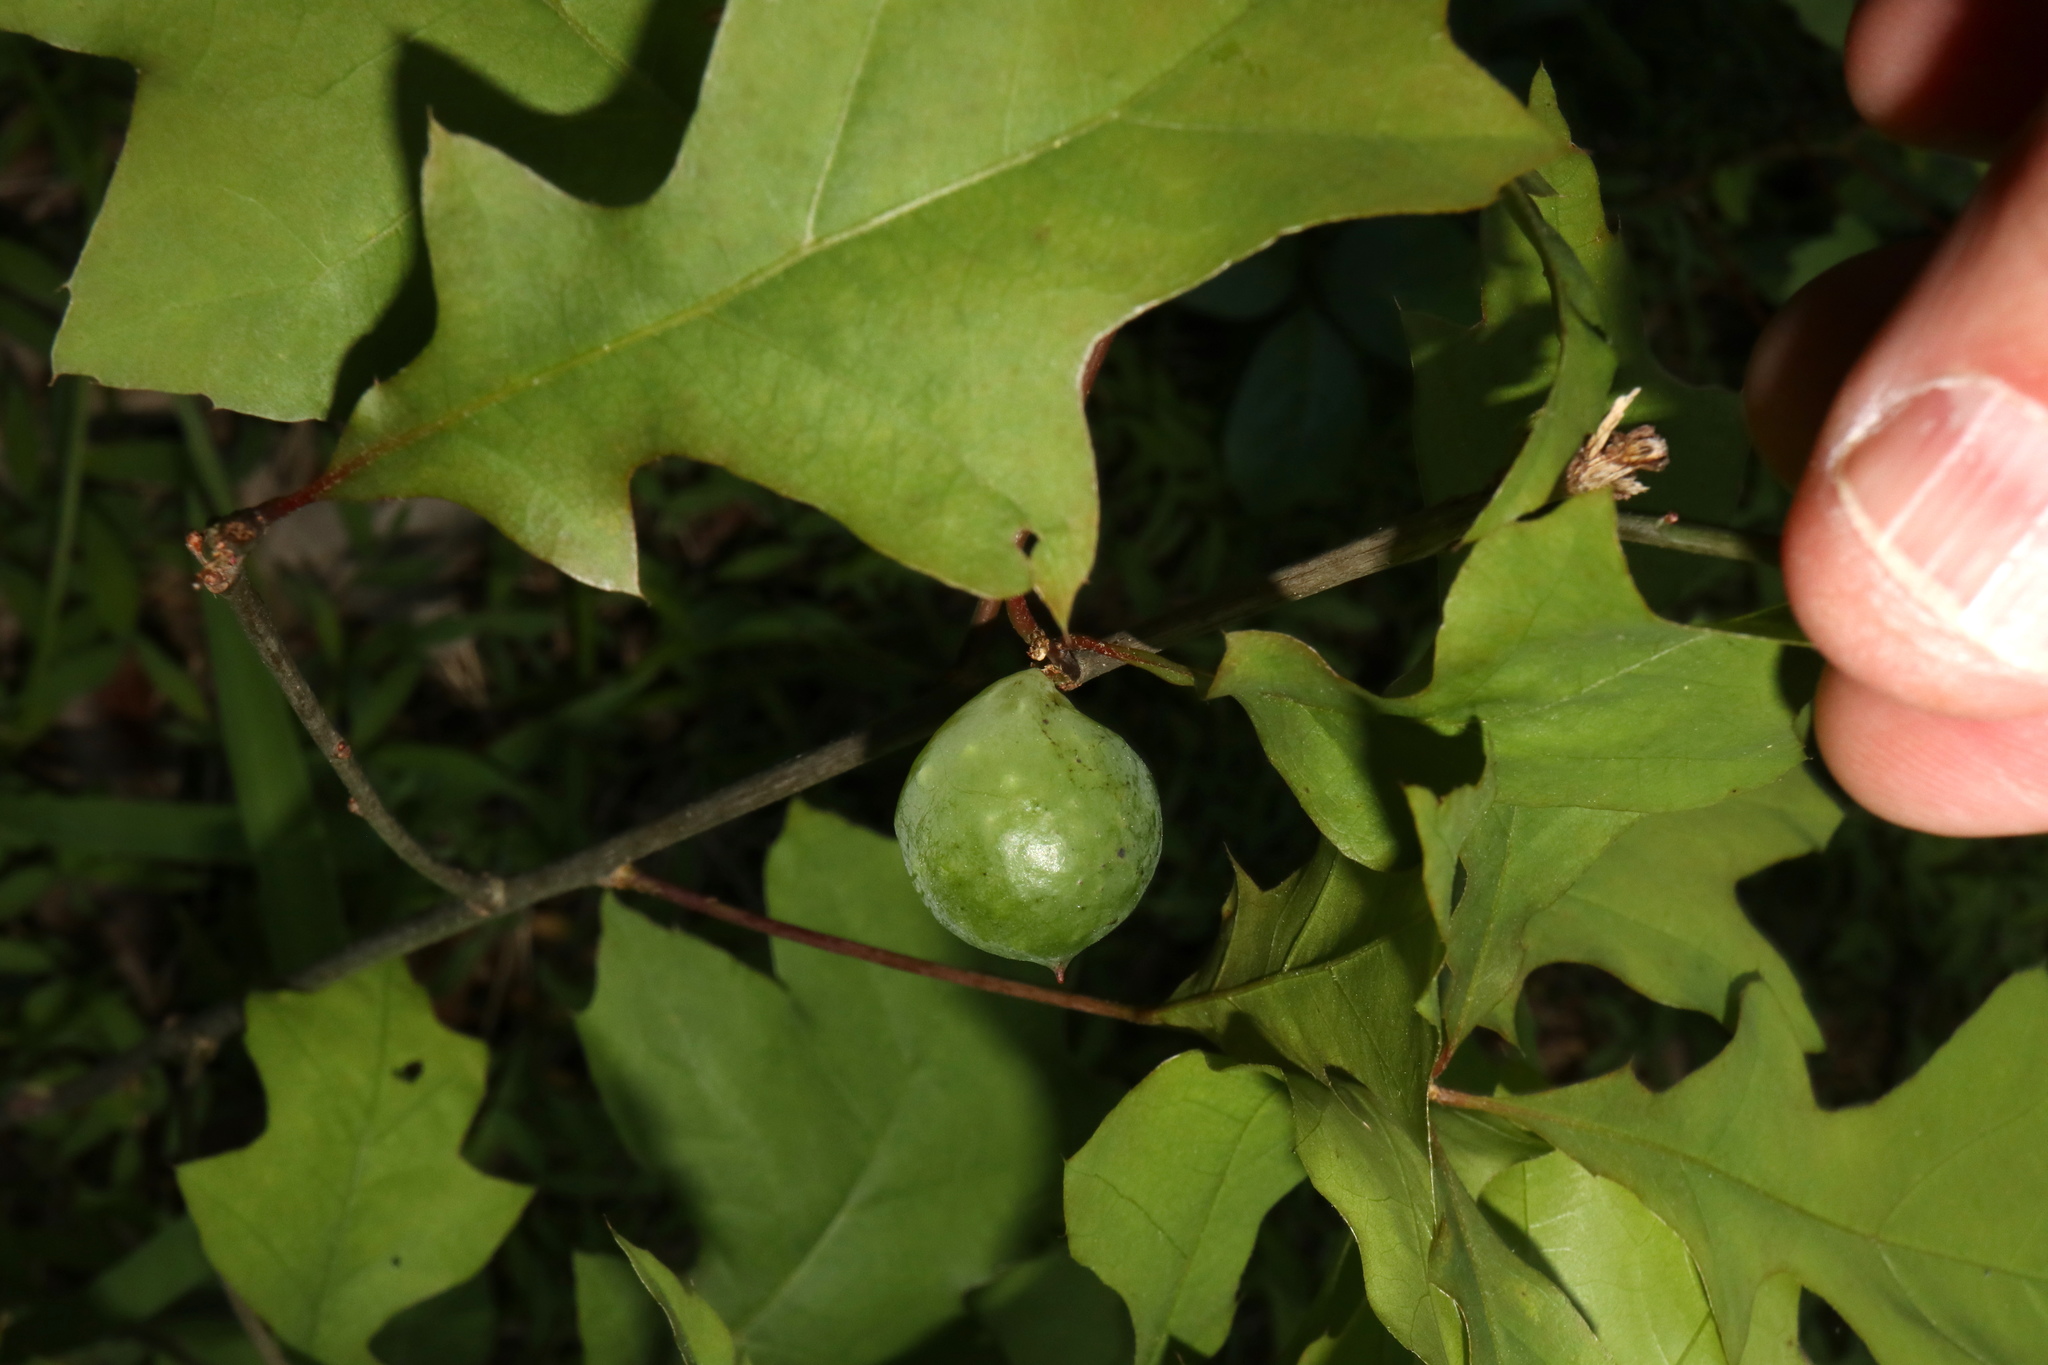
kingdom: Animalia
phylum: Arthropoda
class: Insecta
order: Hymenoptera
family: Cynipidae
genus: Amphibolips
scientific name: Amphibolips
